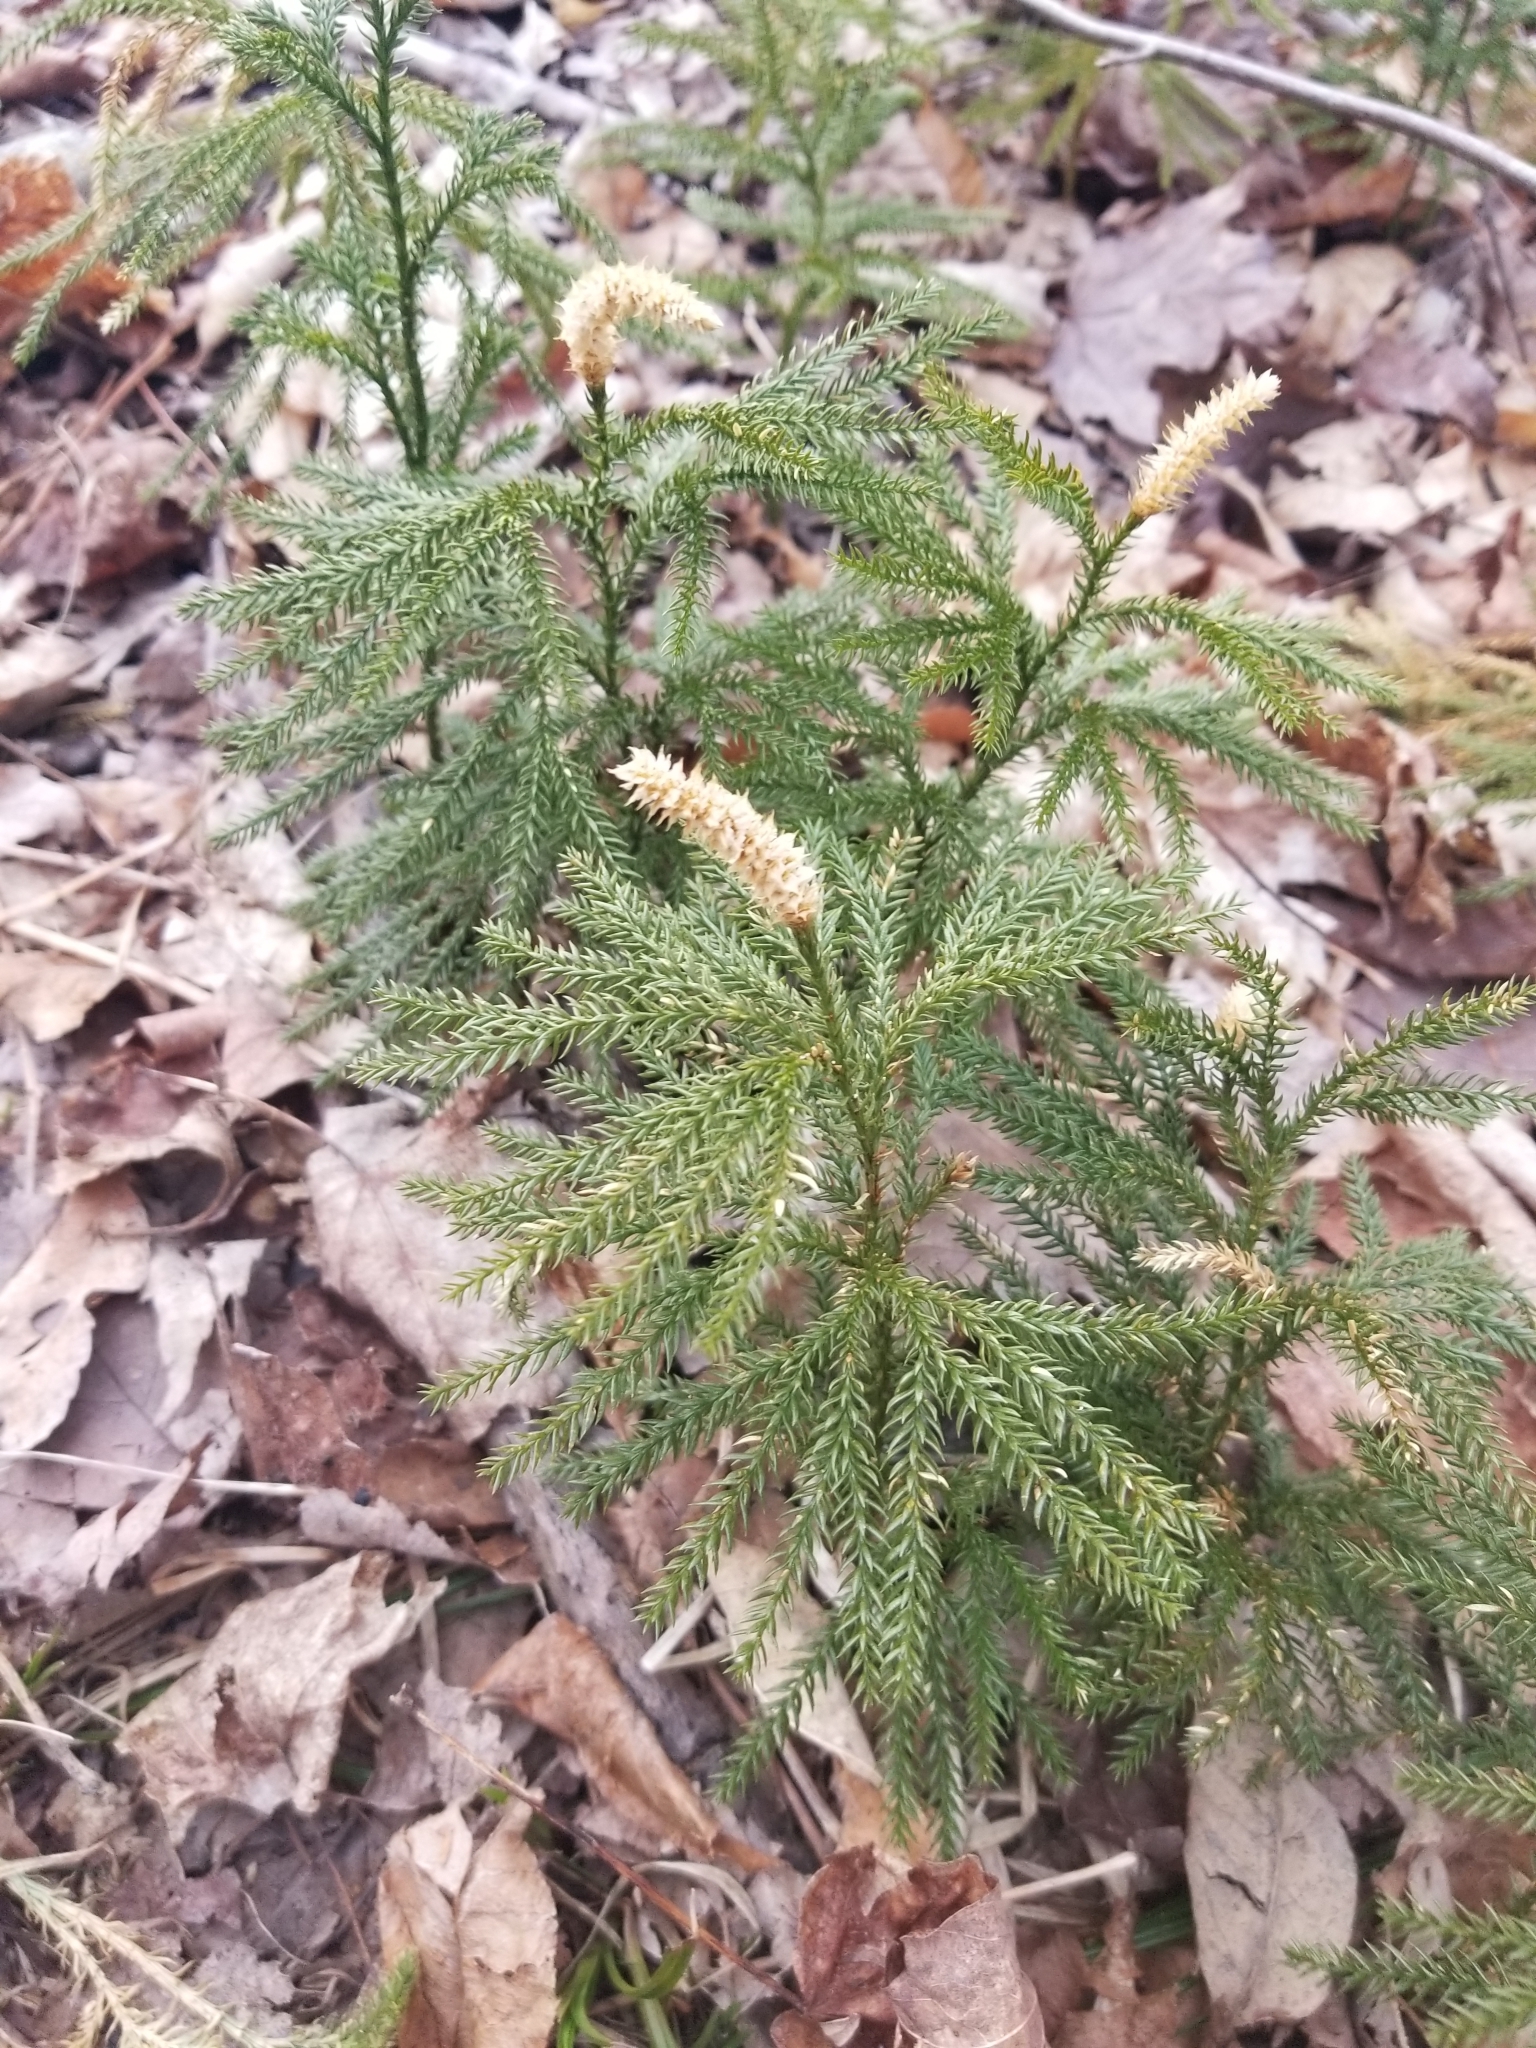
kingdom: Plantae
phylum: Tracheophyta
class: Lycopodiopsida
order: Lycopodiales
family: Lycopodiaceae
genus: Dendrolycopodium
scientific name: Dendrolycopodium dendroideum
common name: Northern tree-clubmoss
